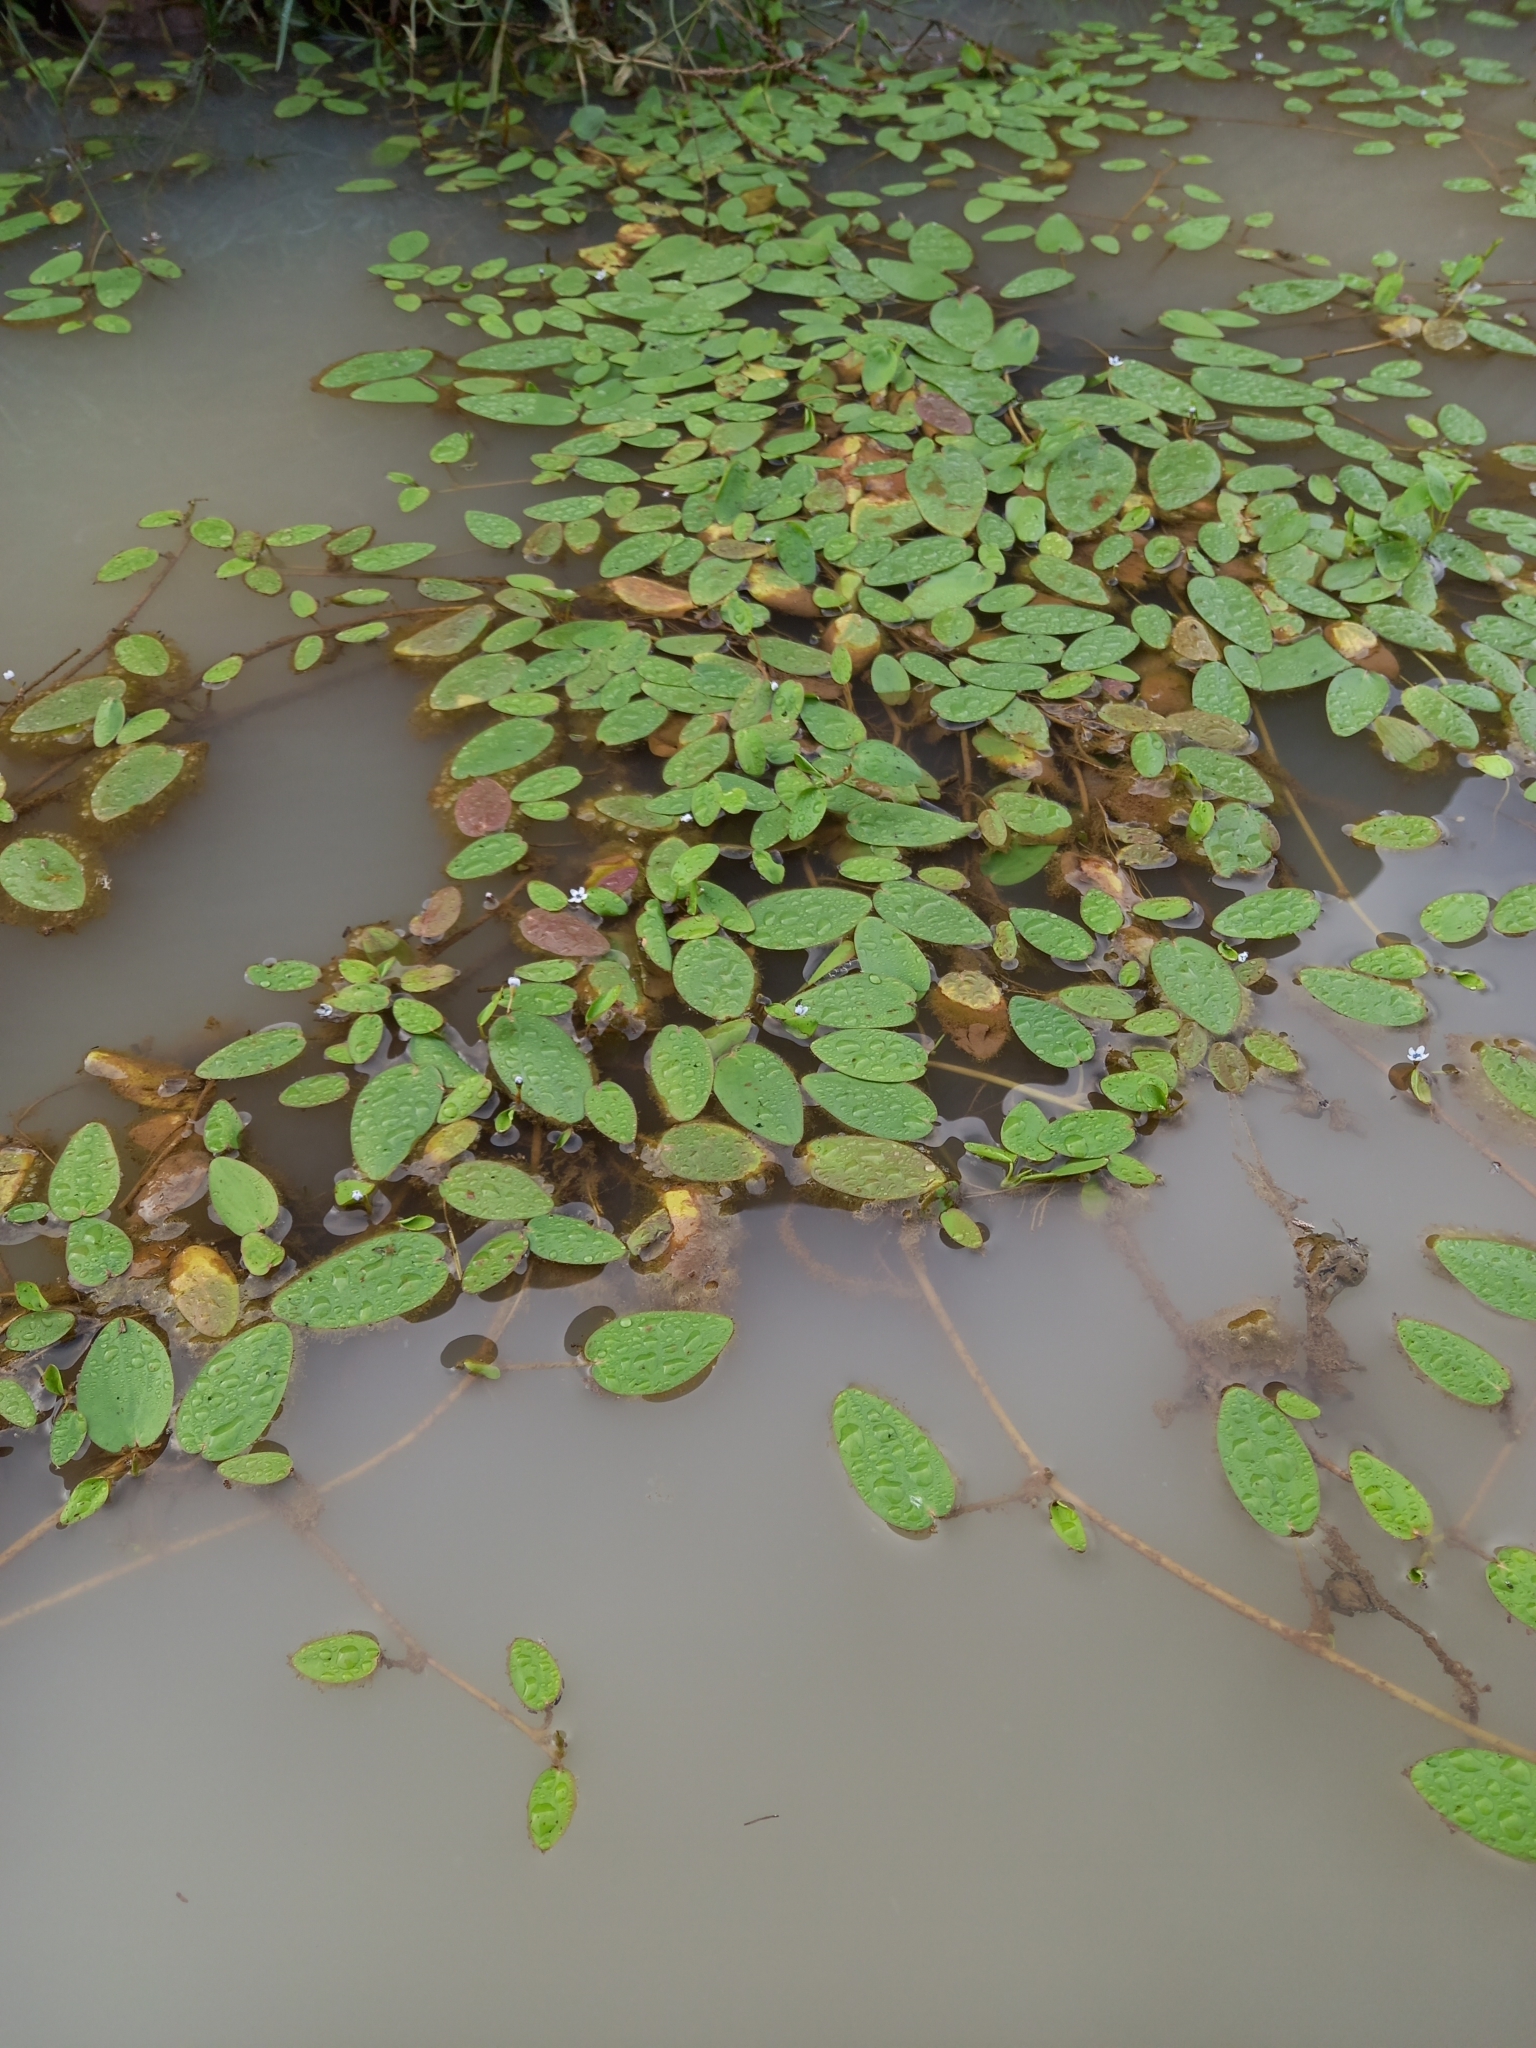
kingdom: Plantae
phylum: Tracheophyta
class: Magnoliopsida
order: Lamiales
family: Scrophulariaceae
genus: Limosella
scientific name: Limosella inflata
